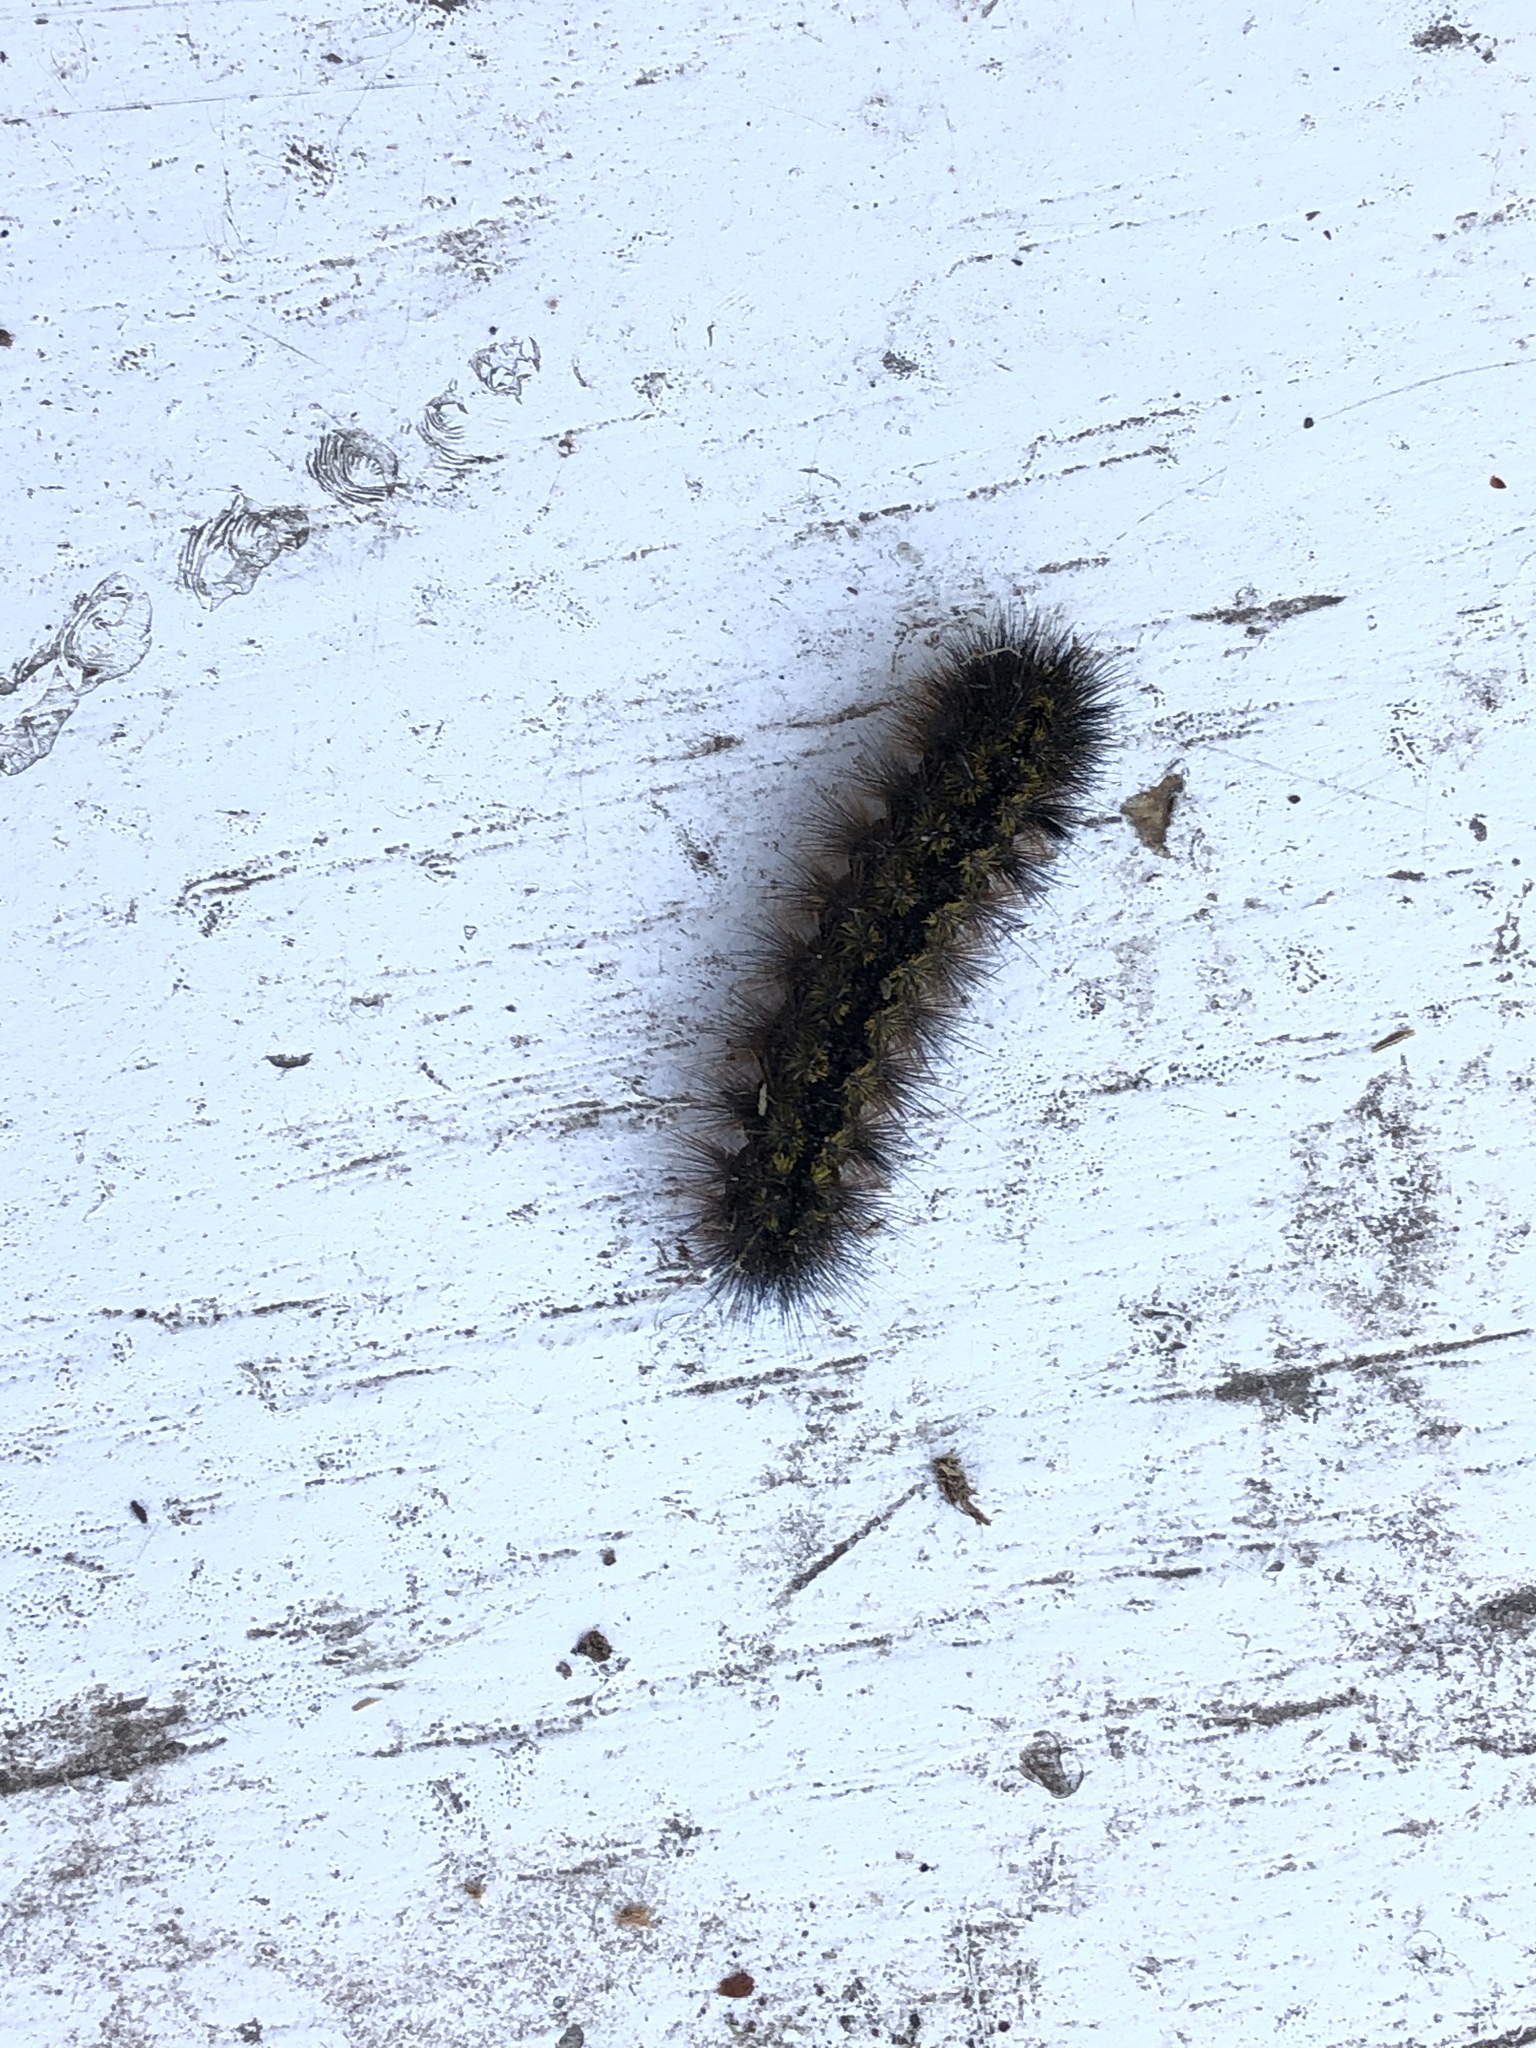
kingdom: Animalia
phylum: Arthropoda
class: Insecta
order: Lepidoptera
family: Erebidae
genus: Lophocampa
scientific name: Lophocampa argentata
